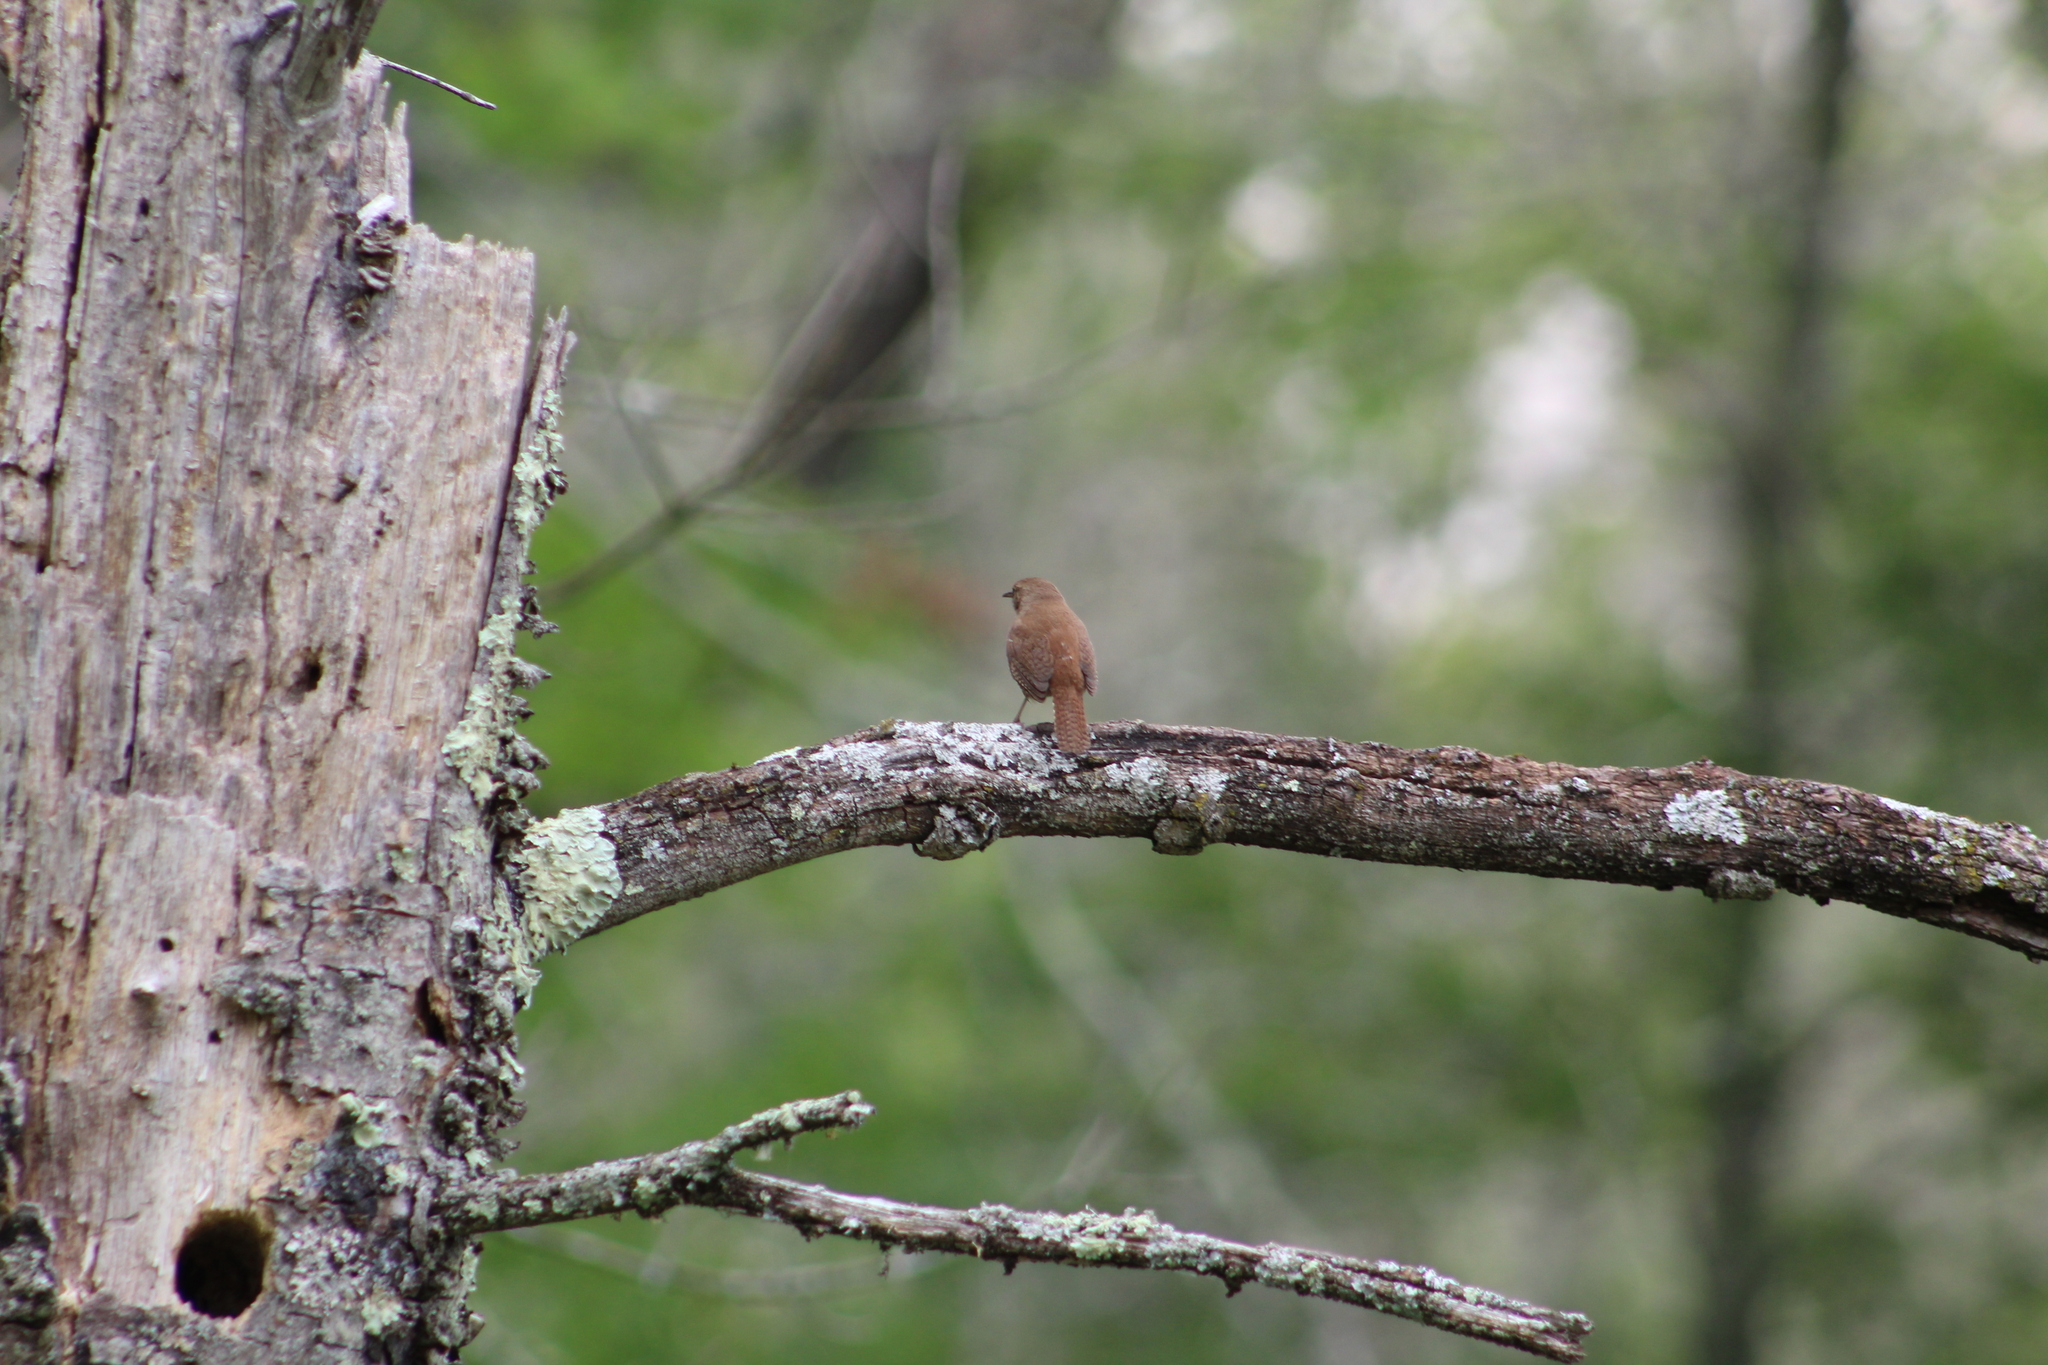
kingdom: Animalia
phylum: Chordata
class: Aves
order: Passeriformes
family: Troglodytidae
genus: Troglodytes
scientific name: Troglodytes aedon
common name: House wren
